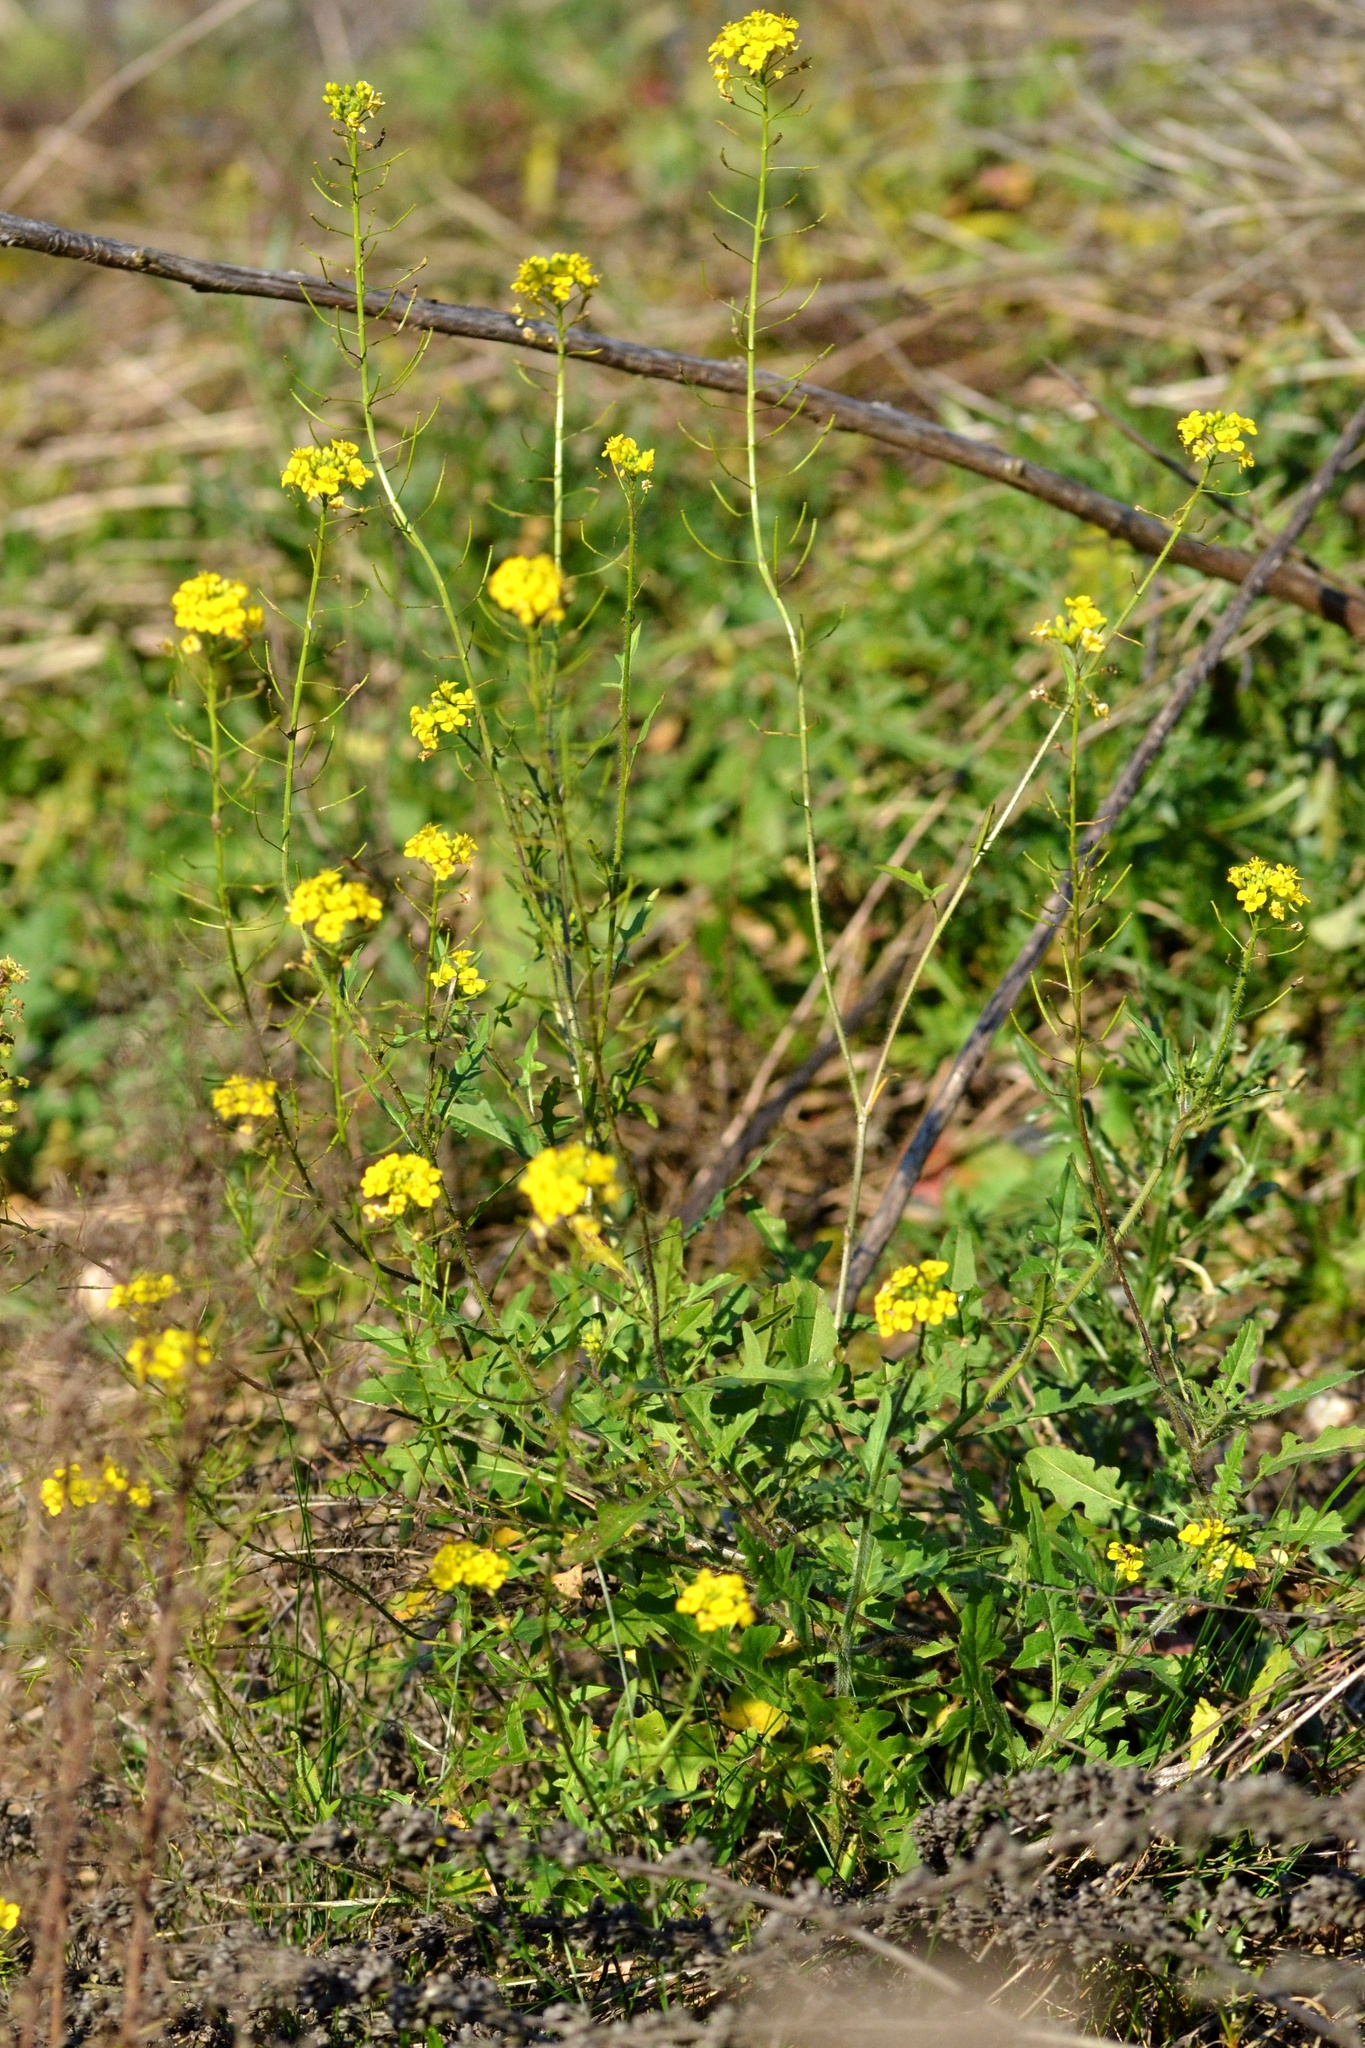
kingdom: Plantae
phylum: Tracheophyta
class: Magnoliopsida
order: Brassicales
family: Brassicaceae
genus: Sisymbrium
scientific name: Sisymbrium loeselii
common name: False london-rocket
